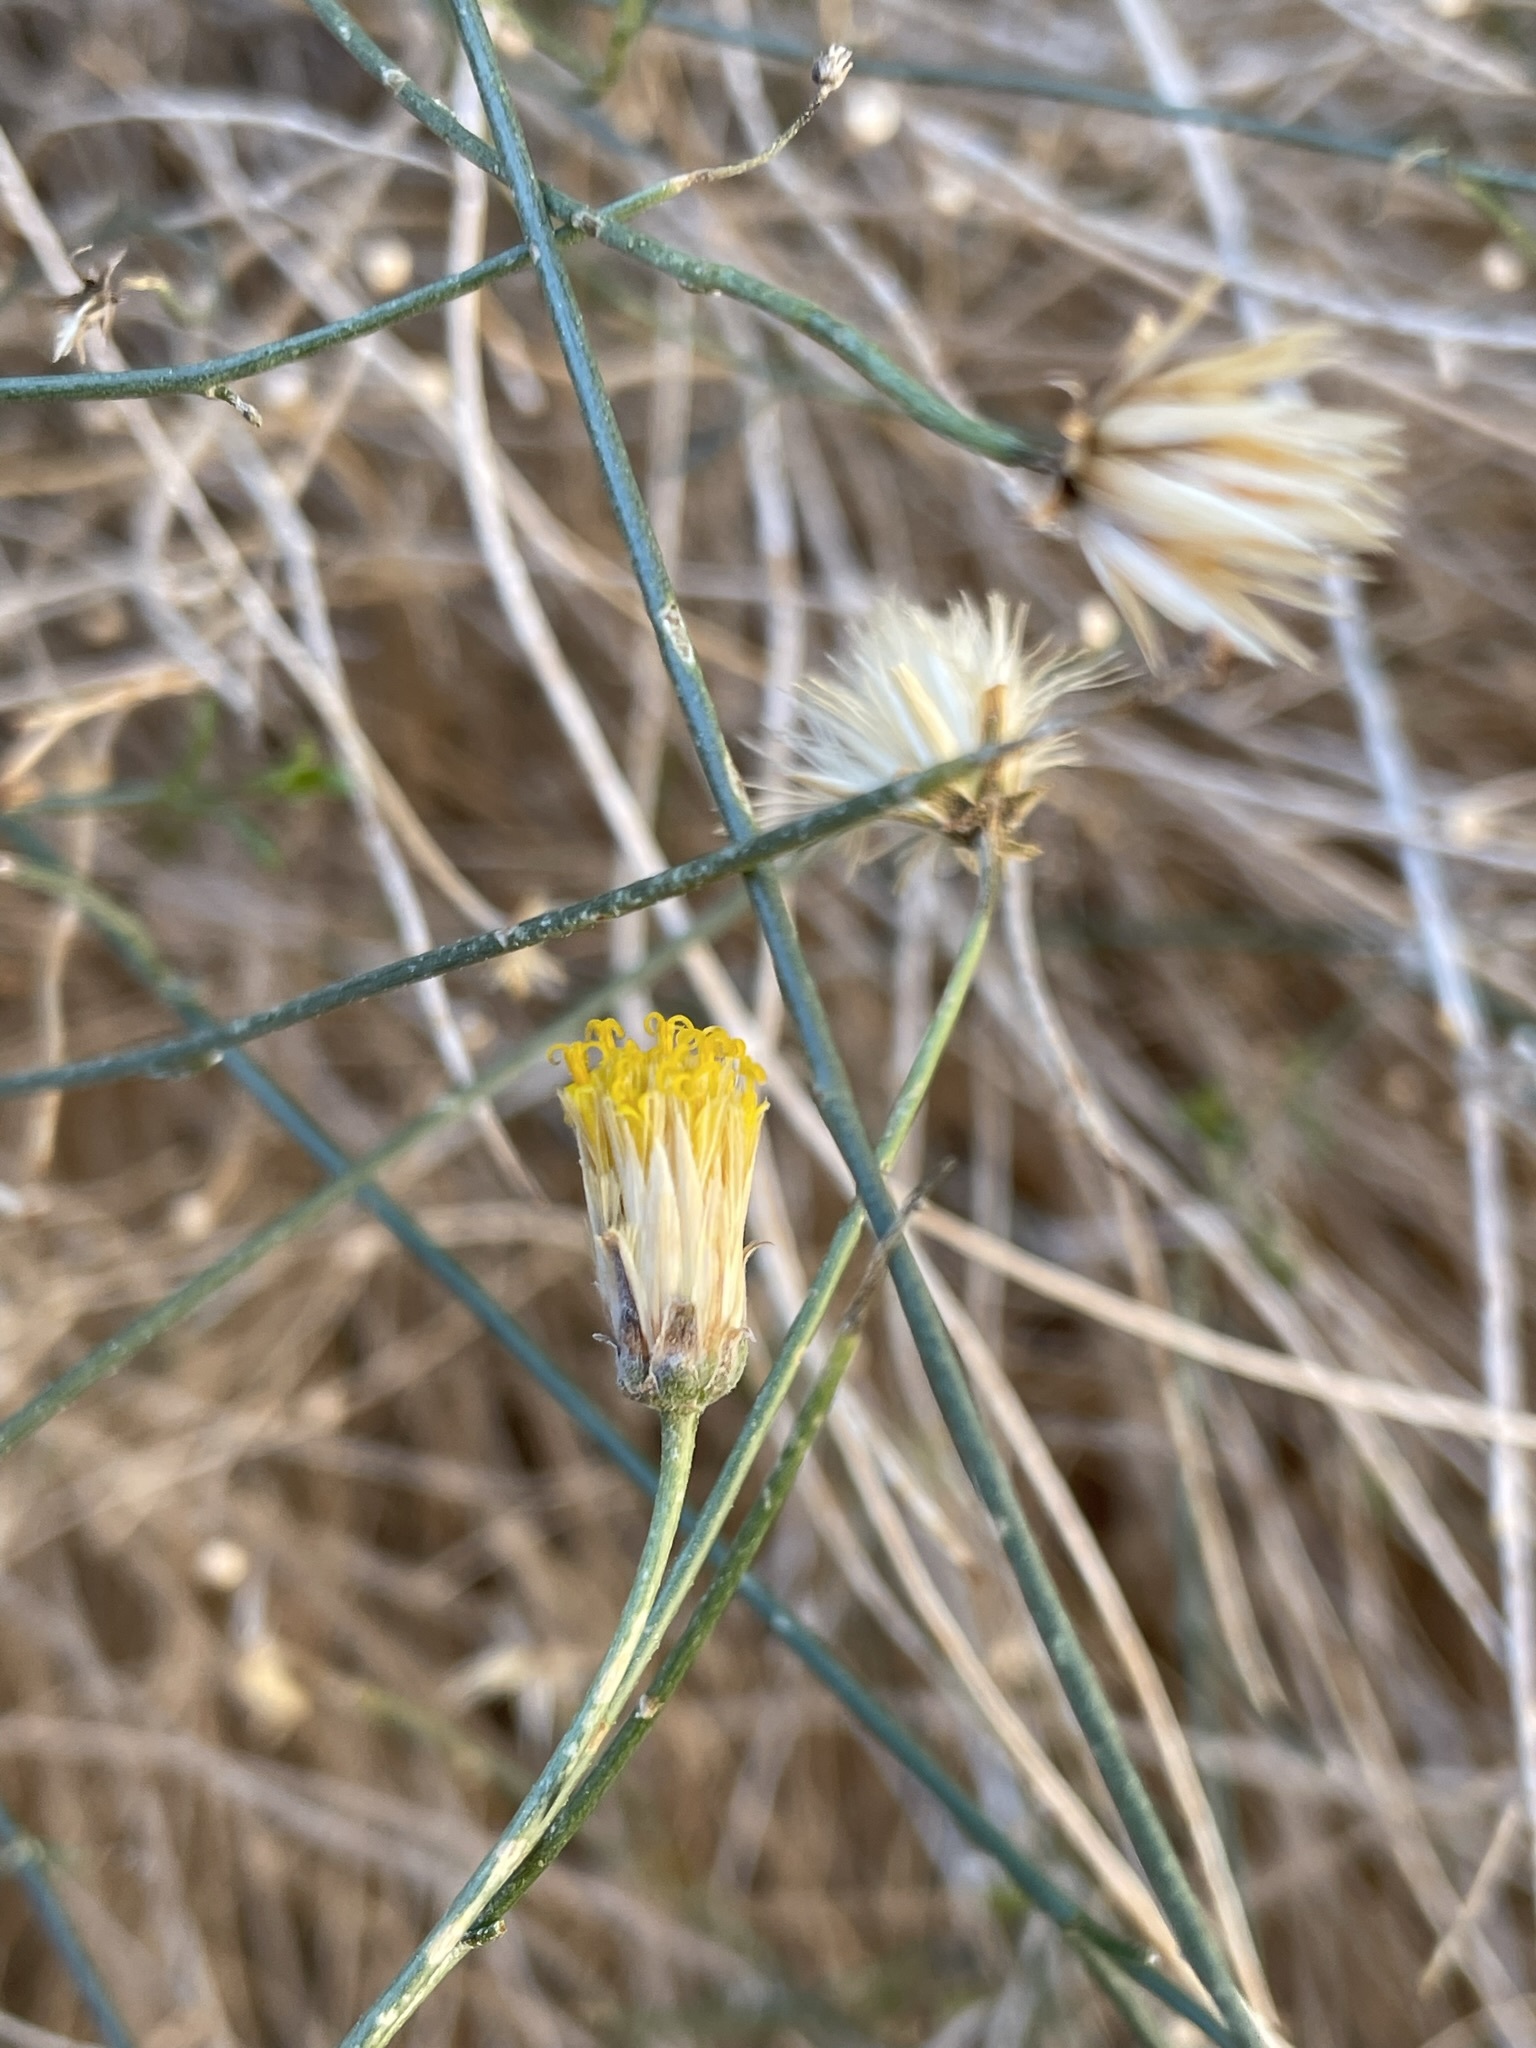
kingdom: Plantae
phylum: Tracheophyta
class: Magnoliopsida
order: Asterales
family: Asteraceae
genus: Bebbia
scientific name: Bebbia juncea
